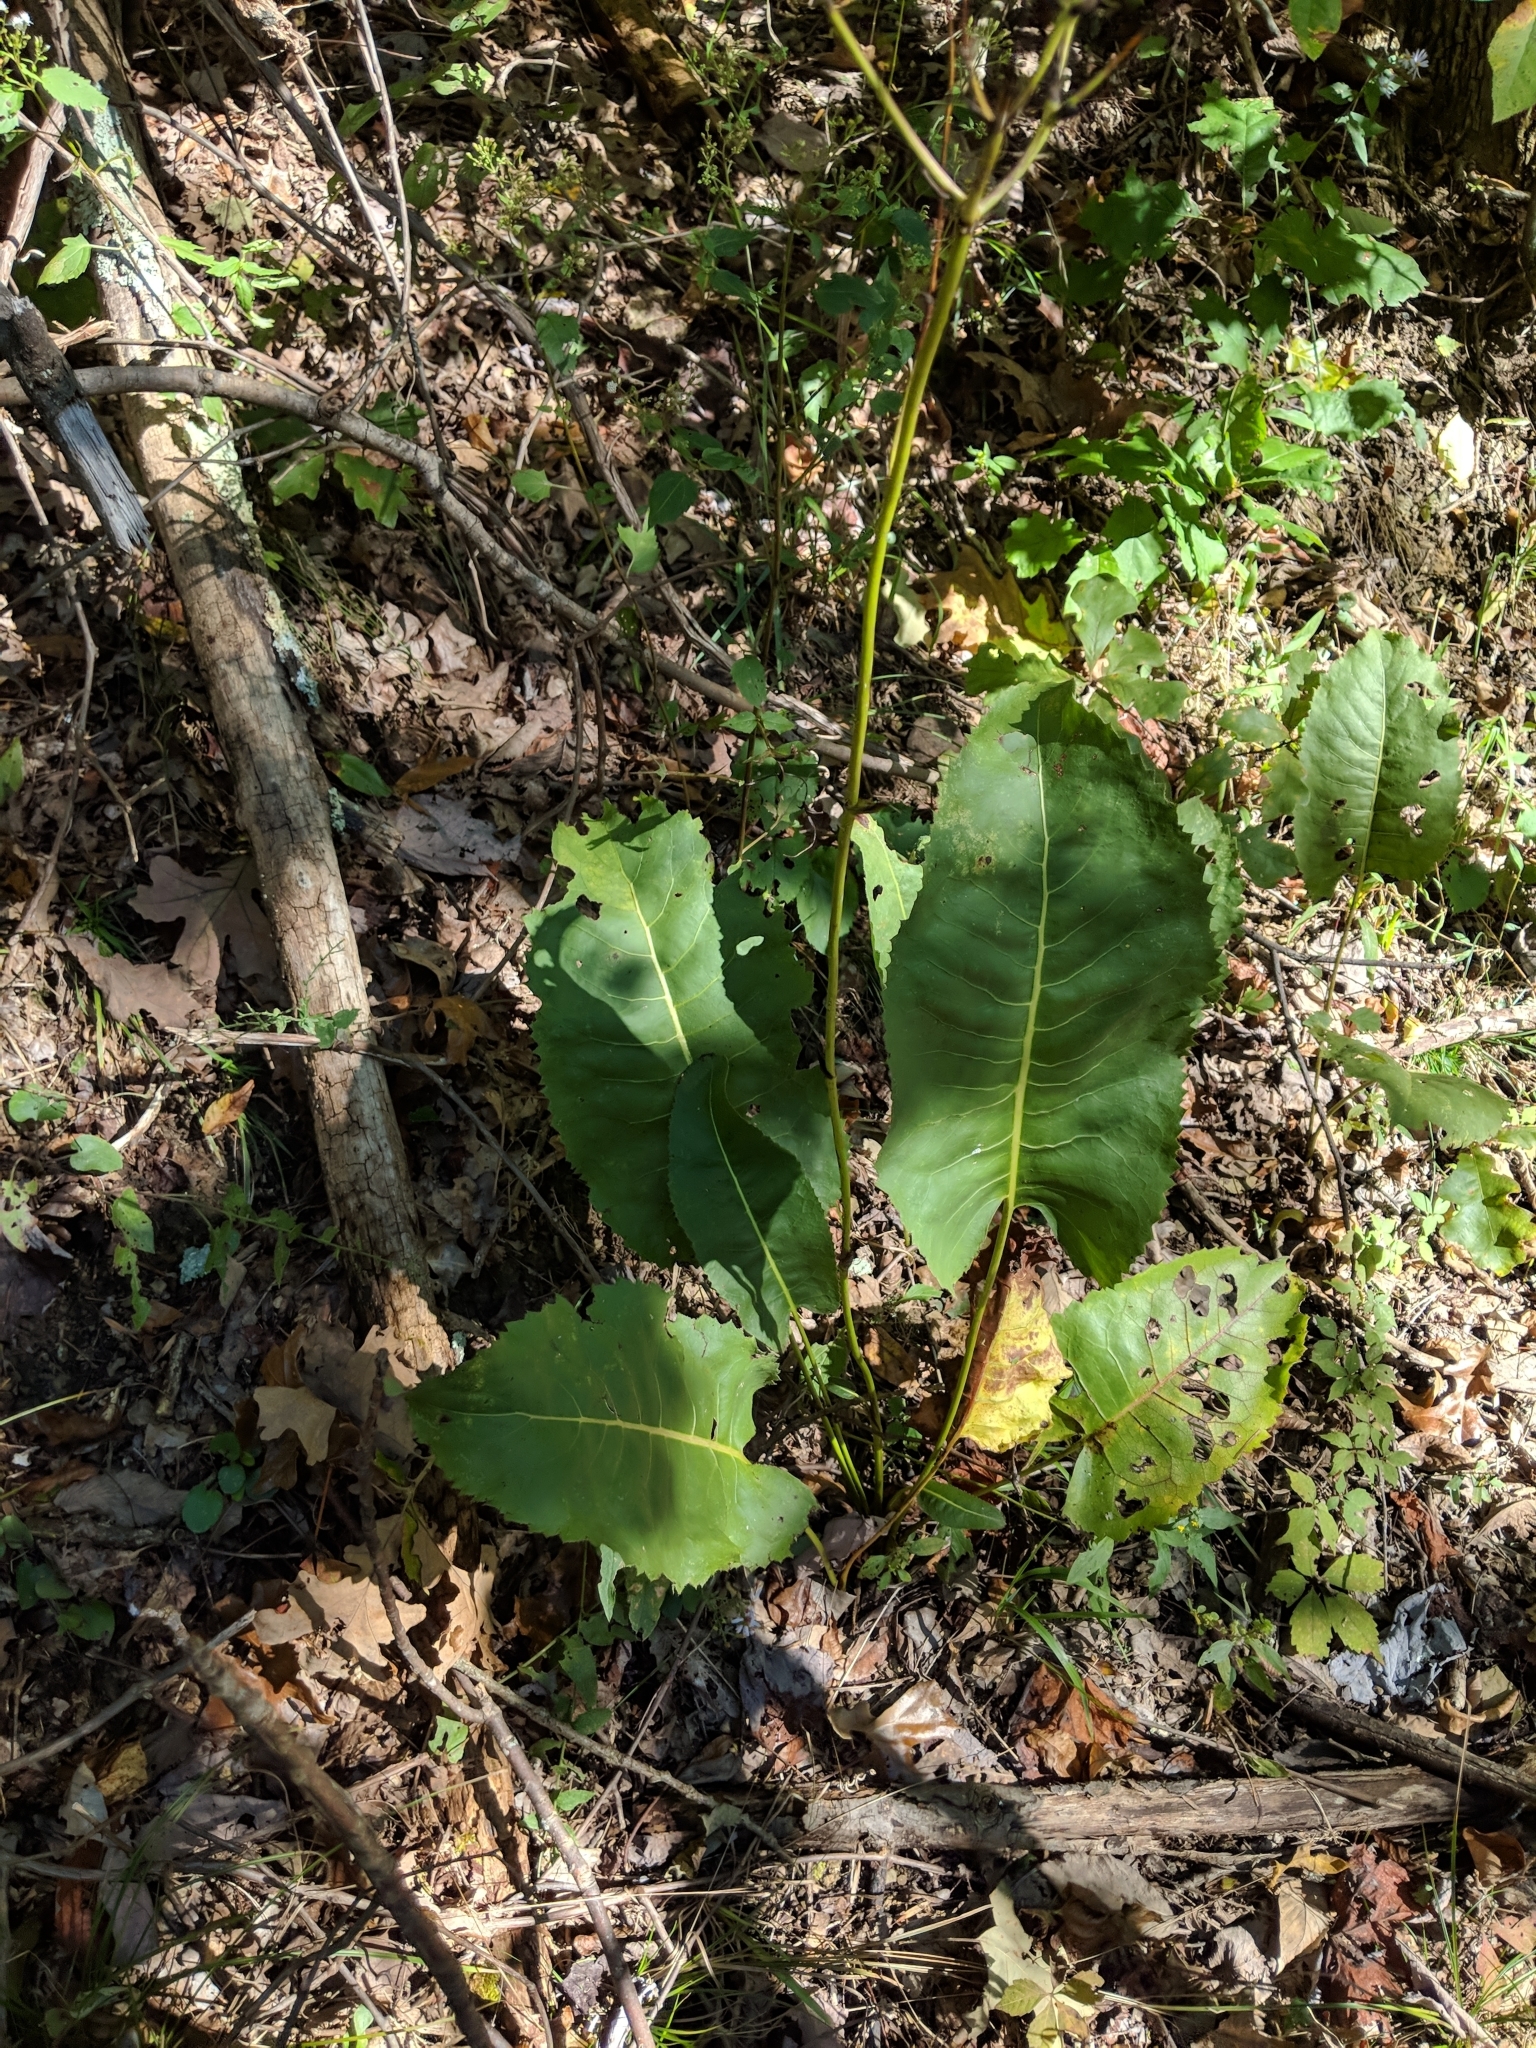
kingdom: Plantae
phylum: Tracheophyta
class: Magnoliopsida
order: Asterales
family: Asteraceae
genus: Silphium
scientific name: Silphium terebinthinaceum
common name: Basal-leaf rosinweed
